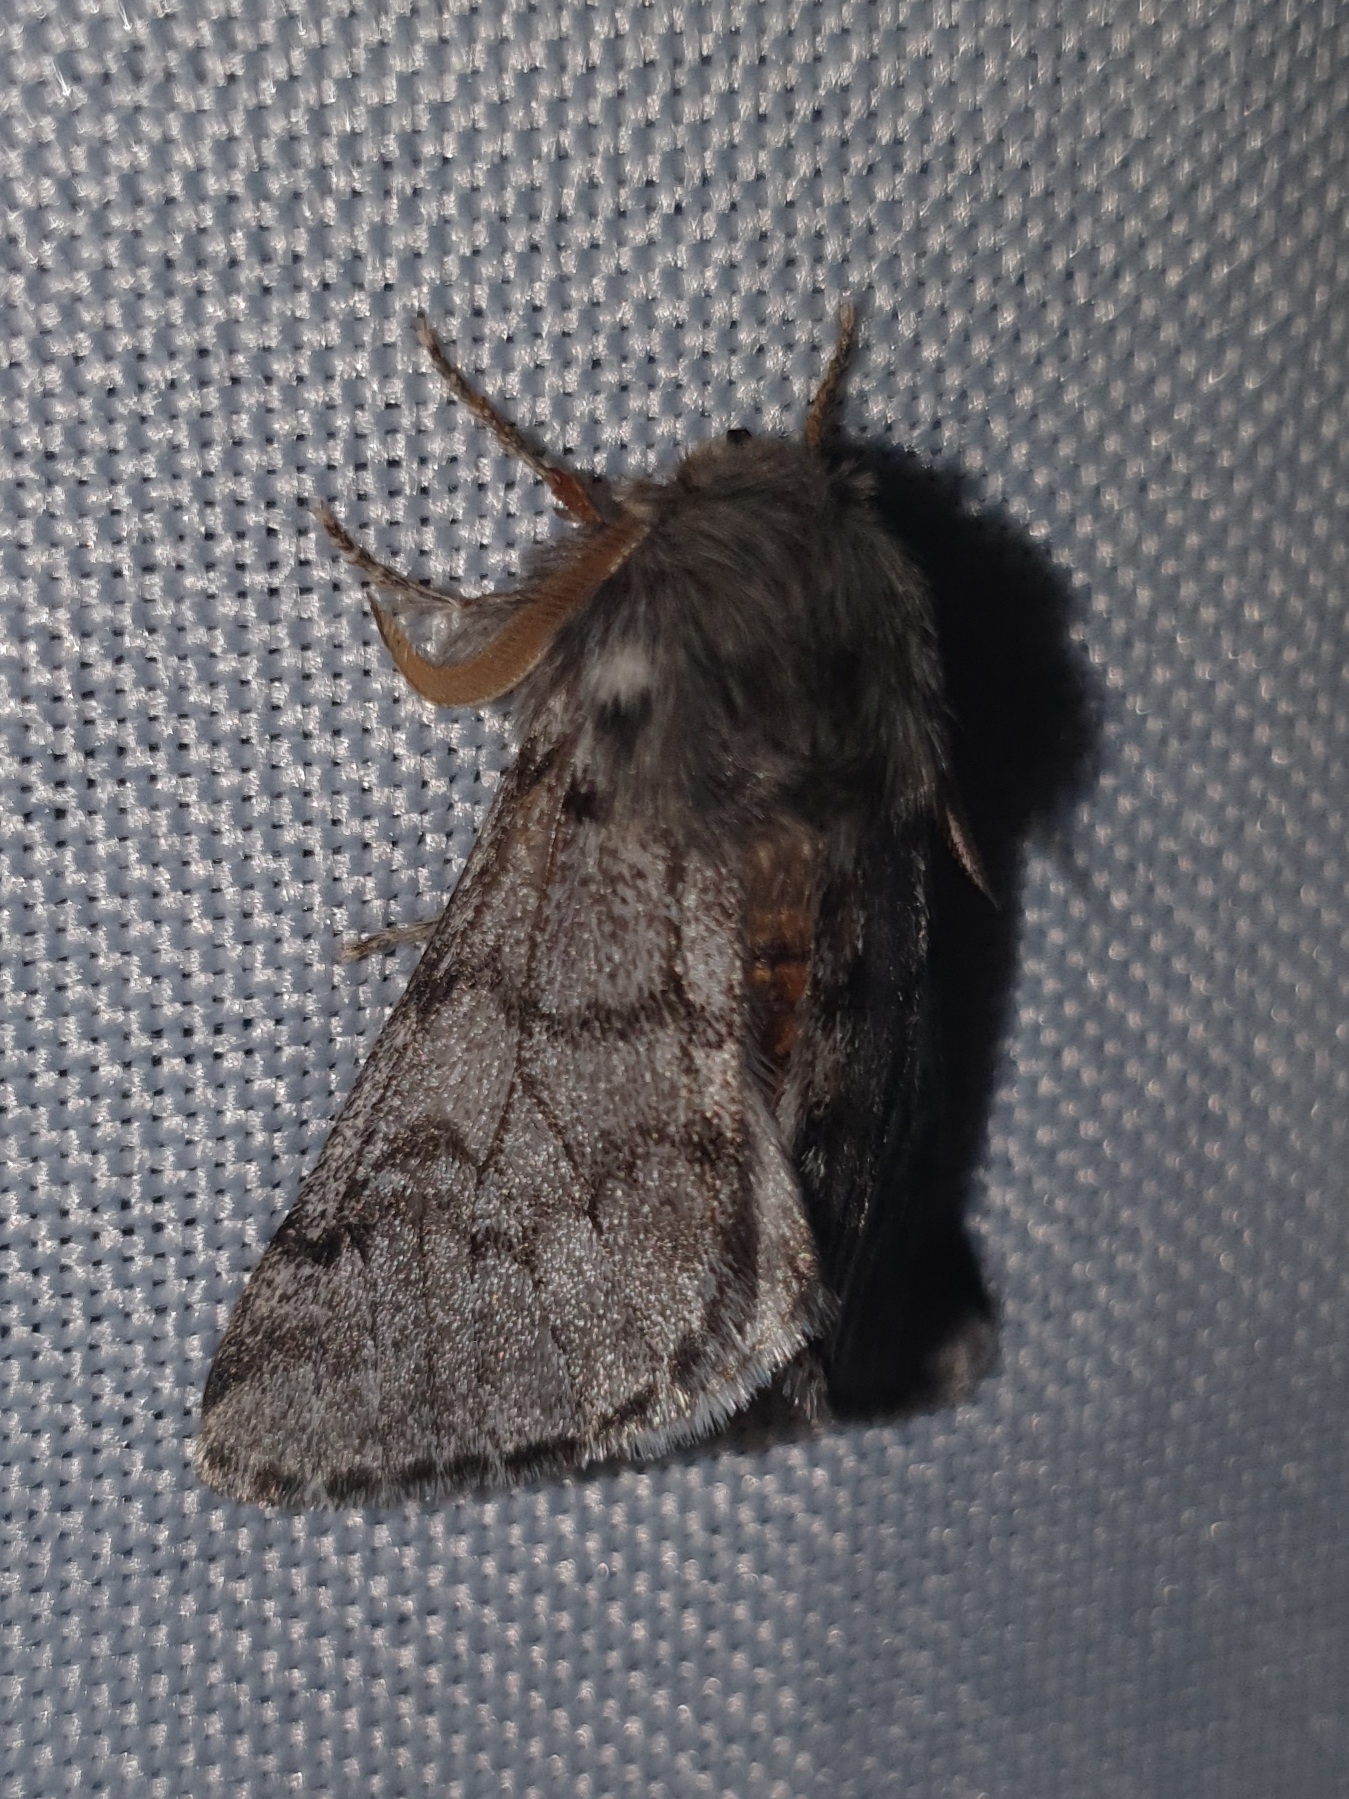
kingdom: Animalia
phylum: Arthropoda
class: Insecta
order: Lepidoptera
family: Notodontidae
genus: Thaumetopoea
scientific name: Thaumetopoea pityocampa
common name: Pine processionary
